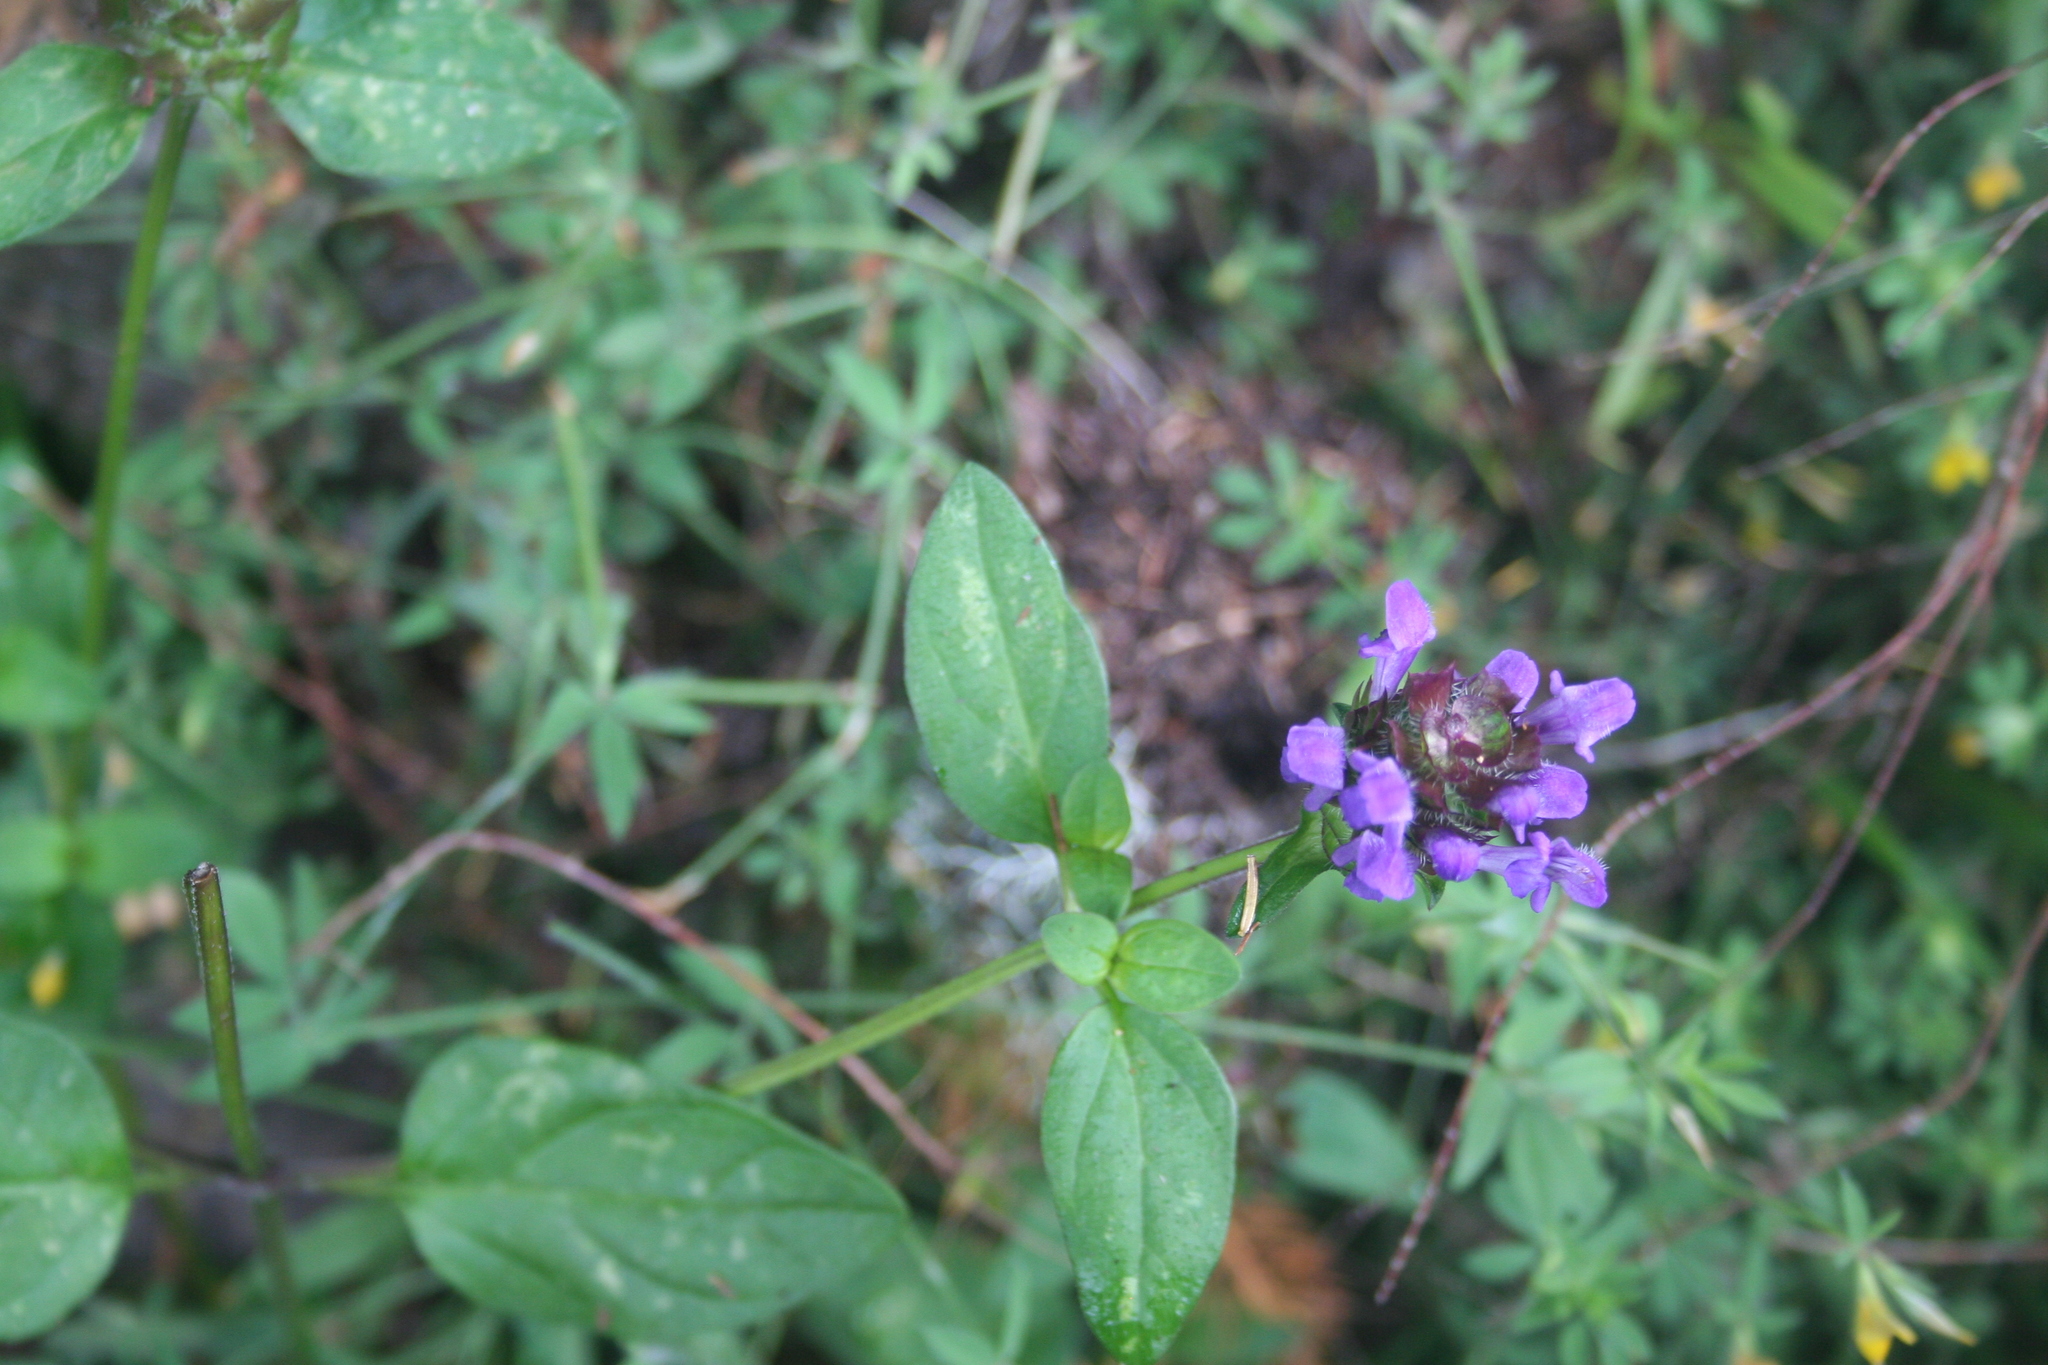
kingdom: Plantae
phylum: Tracheophyta
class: Magnoliopsida
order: Lamiales
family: Lamiaceae
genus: Prunella
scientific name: Prunella vulgaris
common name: Heal-all
